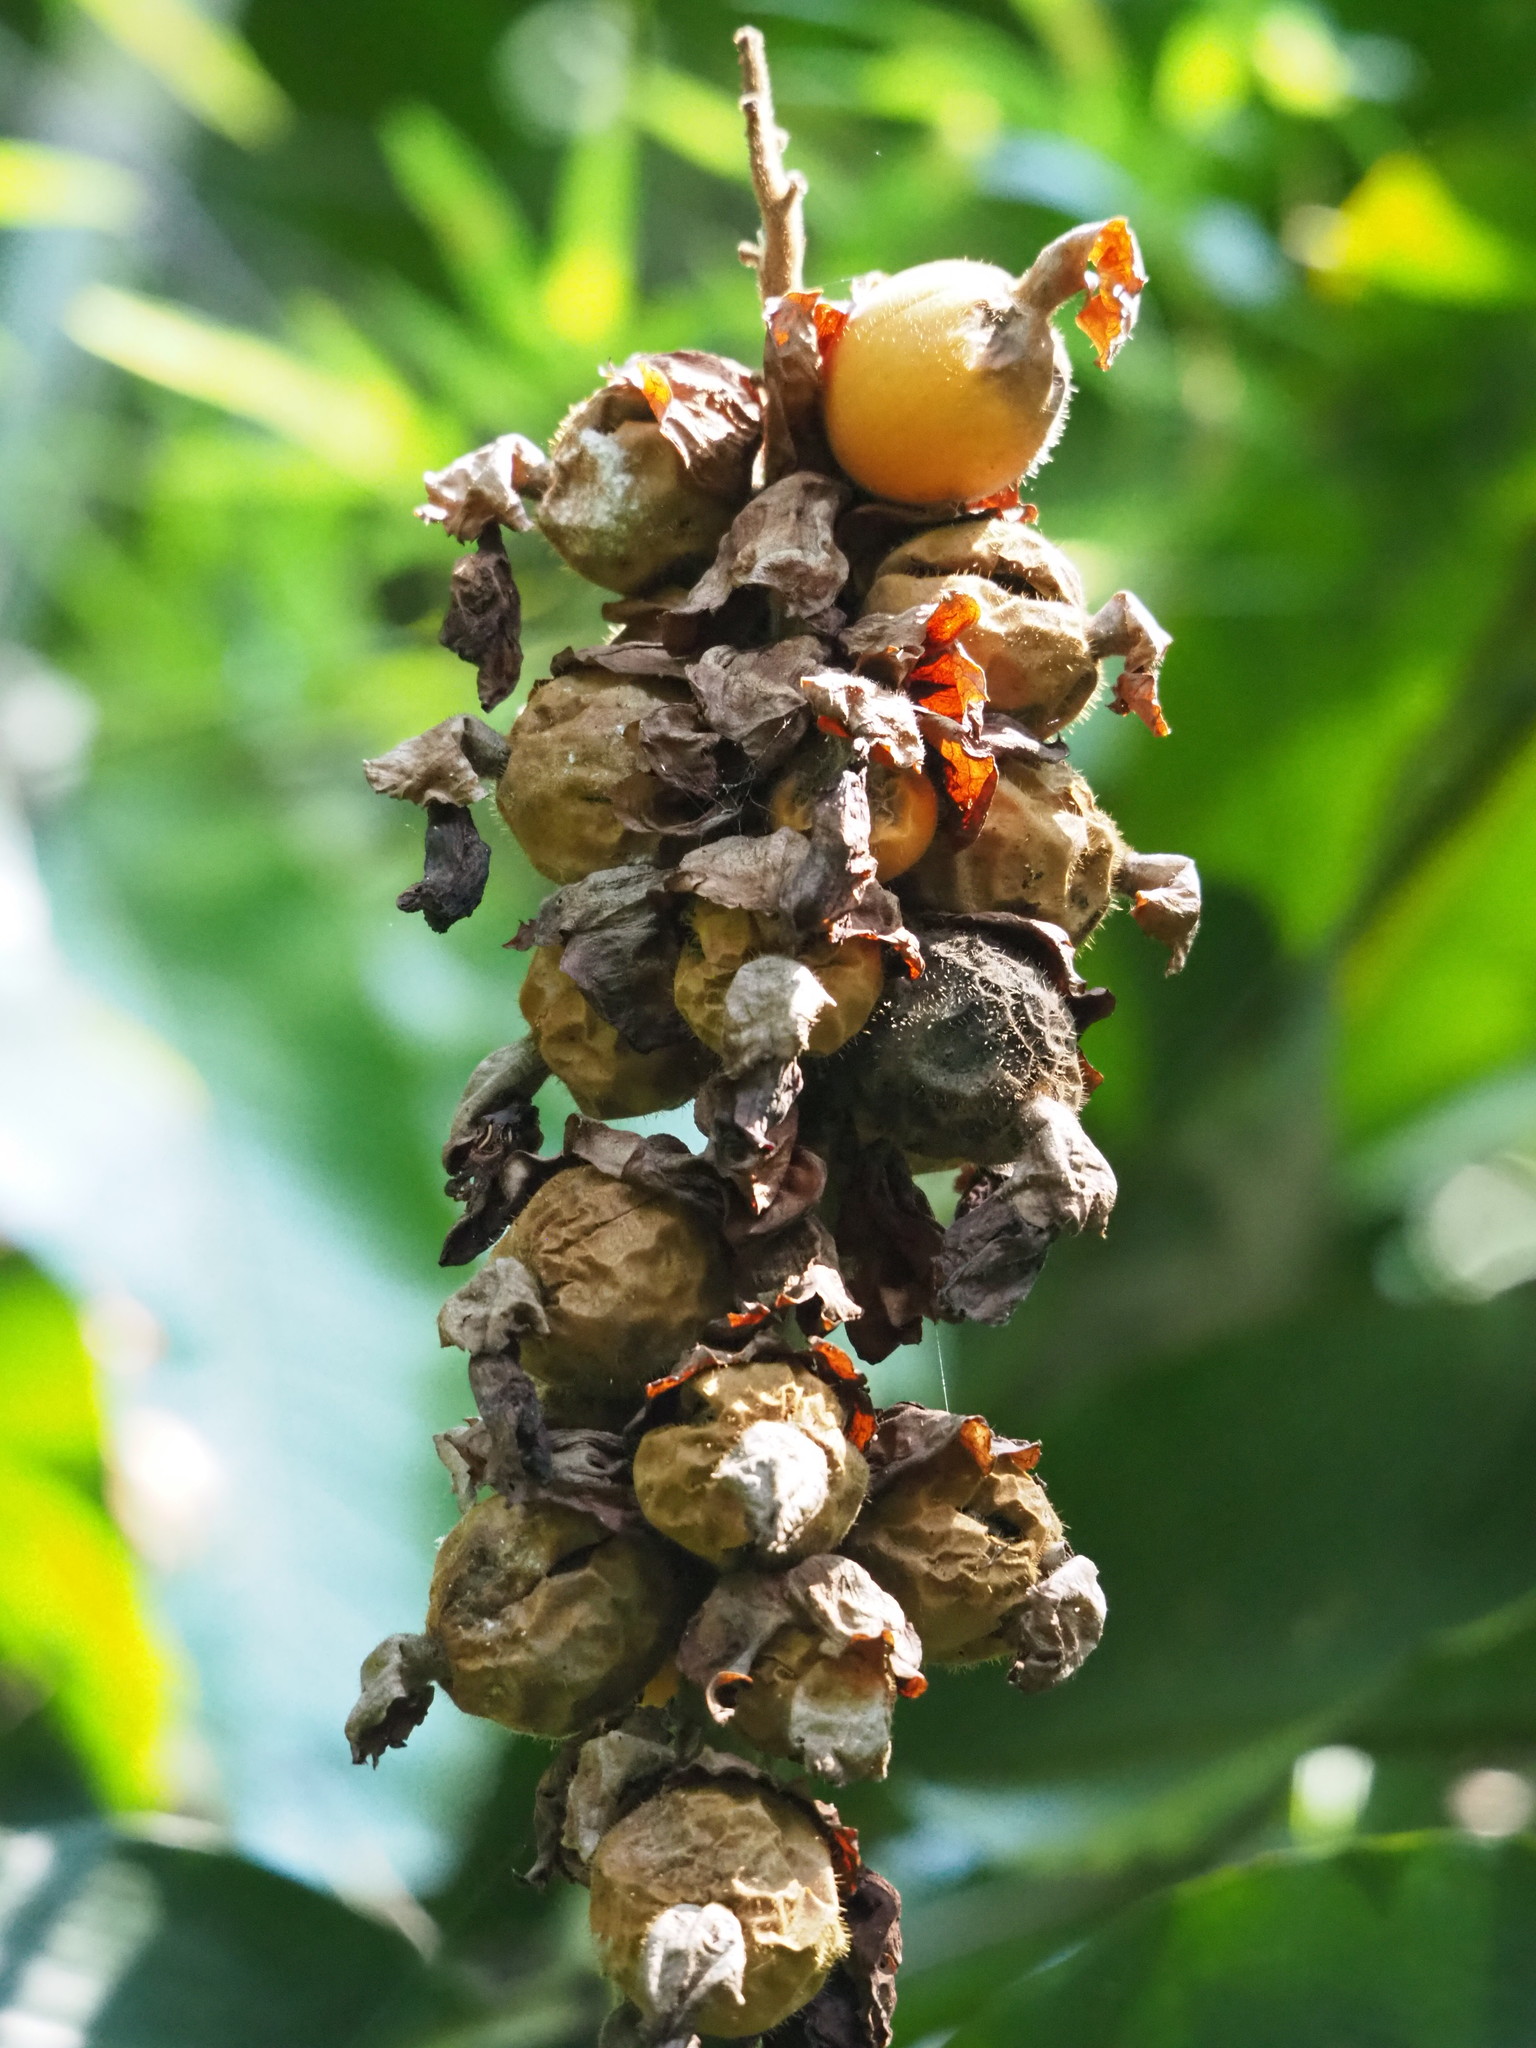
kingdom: Plantae
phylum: Tracheophyta
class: Liliopsida
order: Zingiberales
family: Zingiberaceae
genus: Alpinia
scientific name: Alpinia uraiensis
